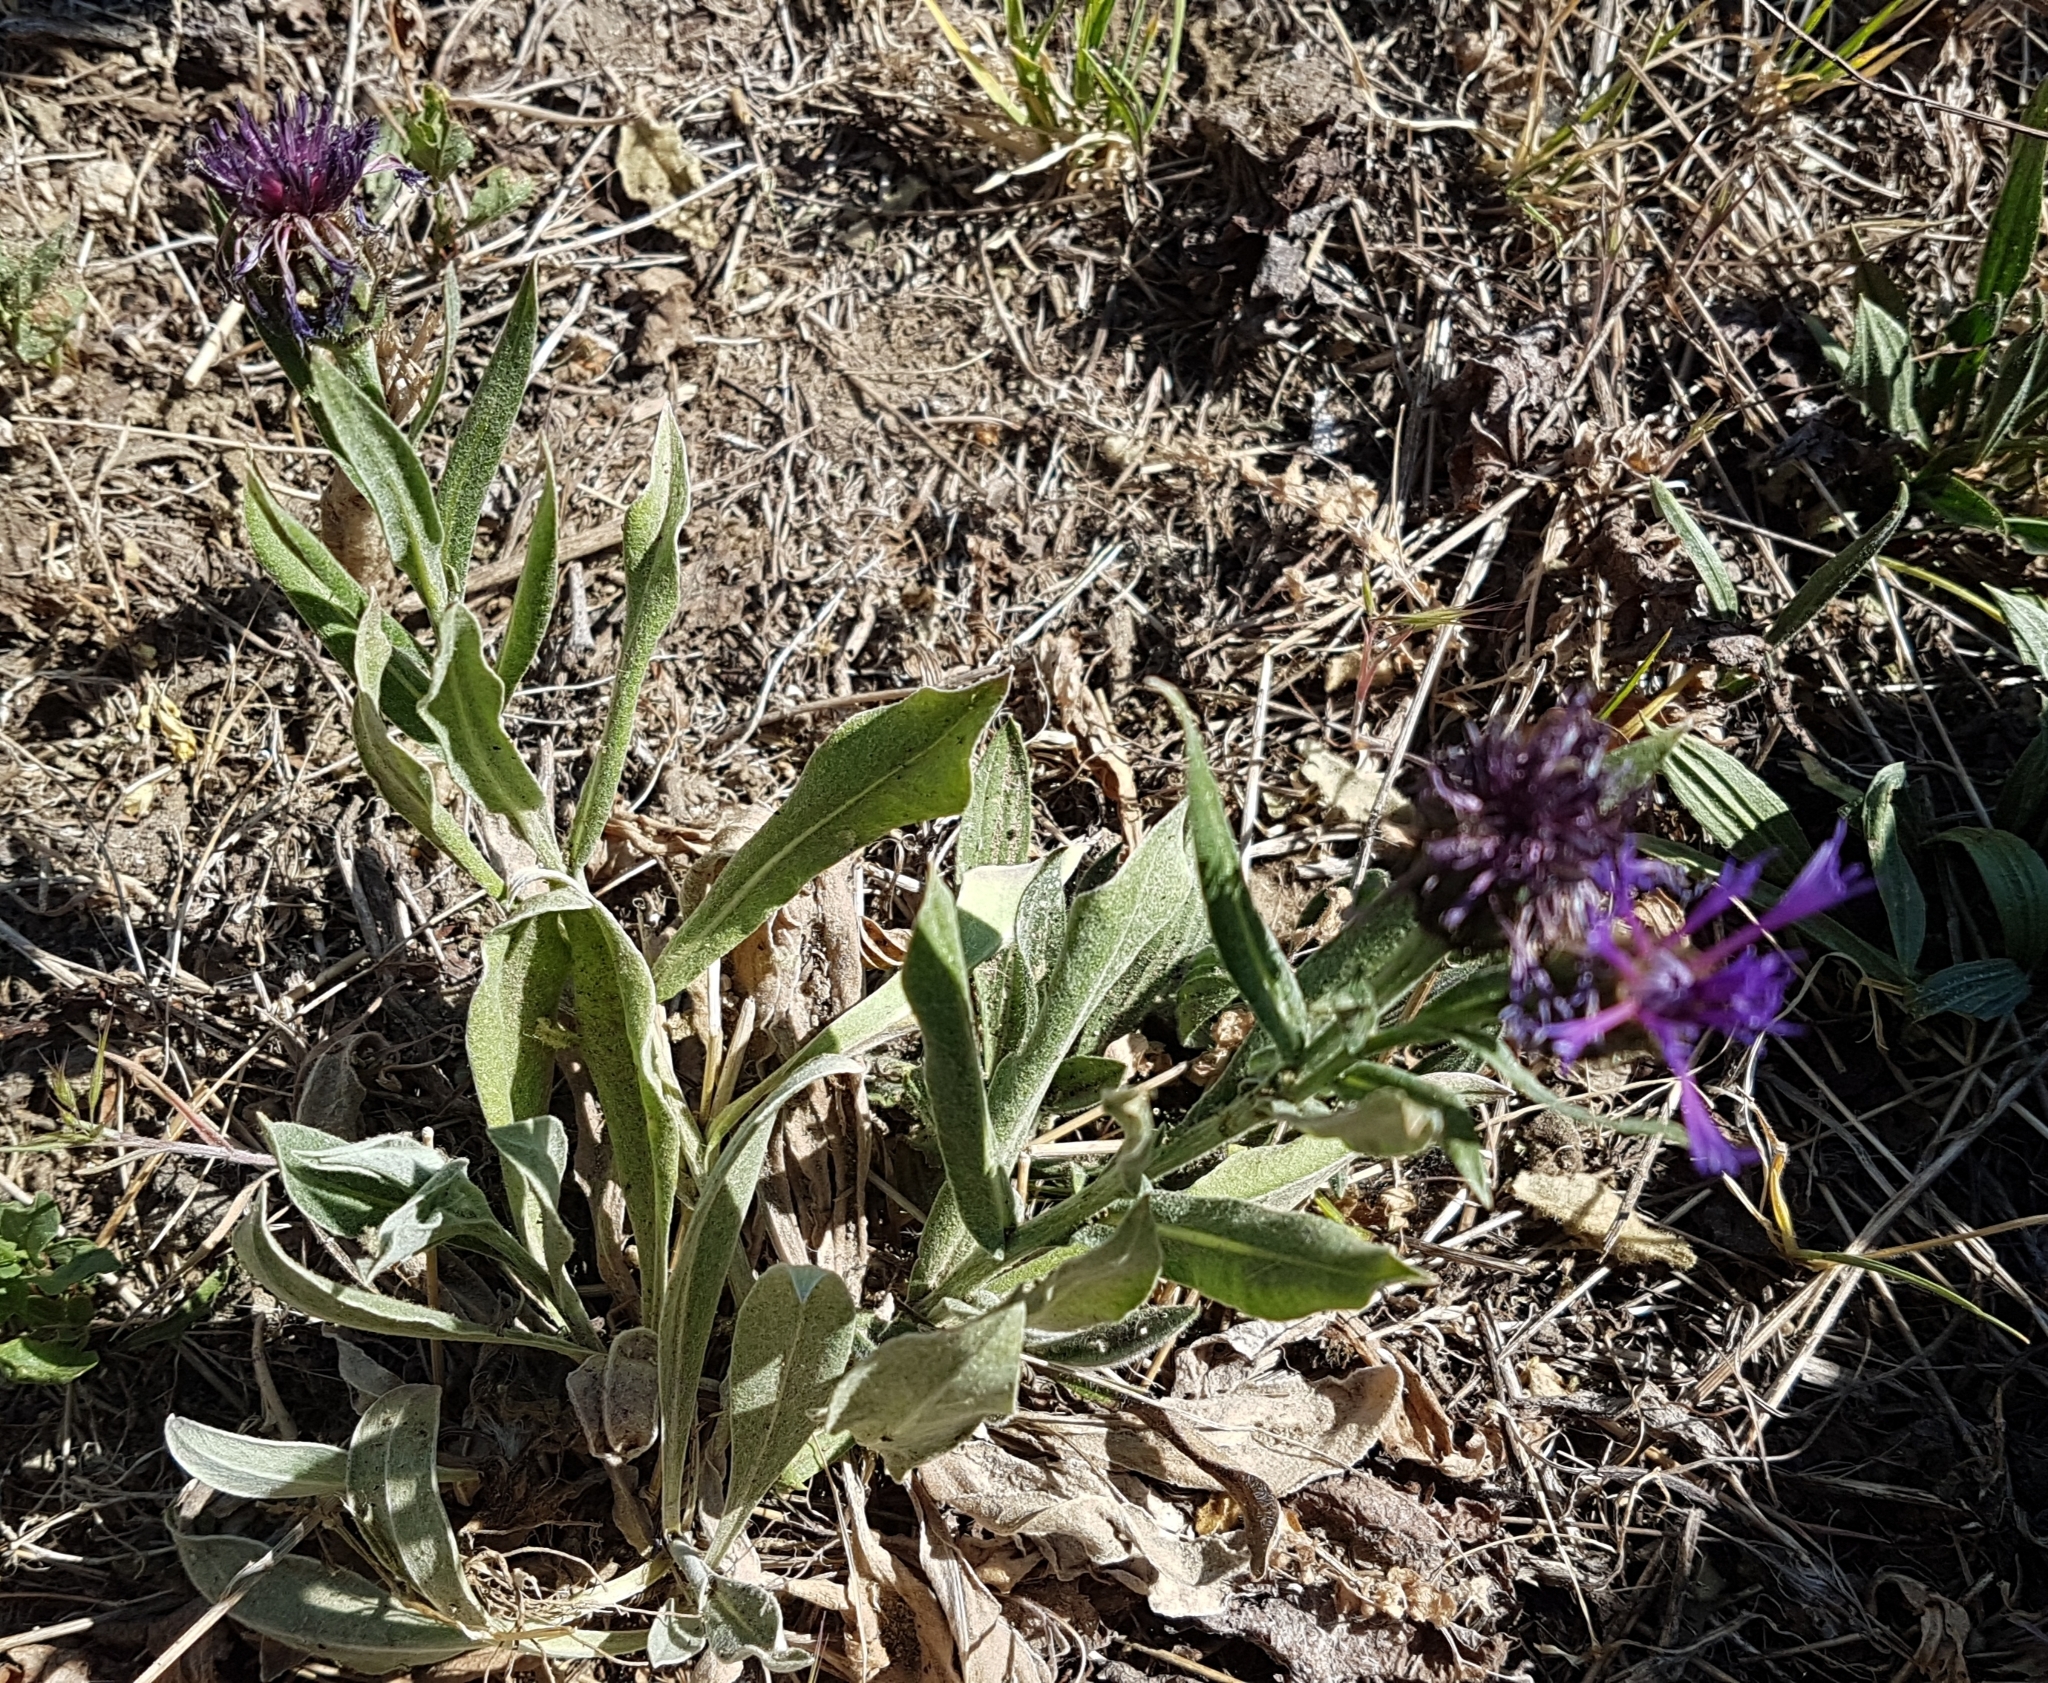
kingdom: Plantae
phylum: Tracheophyta
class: Magnoliopsida
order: Asterales
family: Asteraceae
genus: Centaurea
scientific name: Centaurea triumfettii
